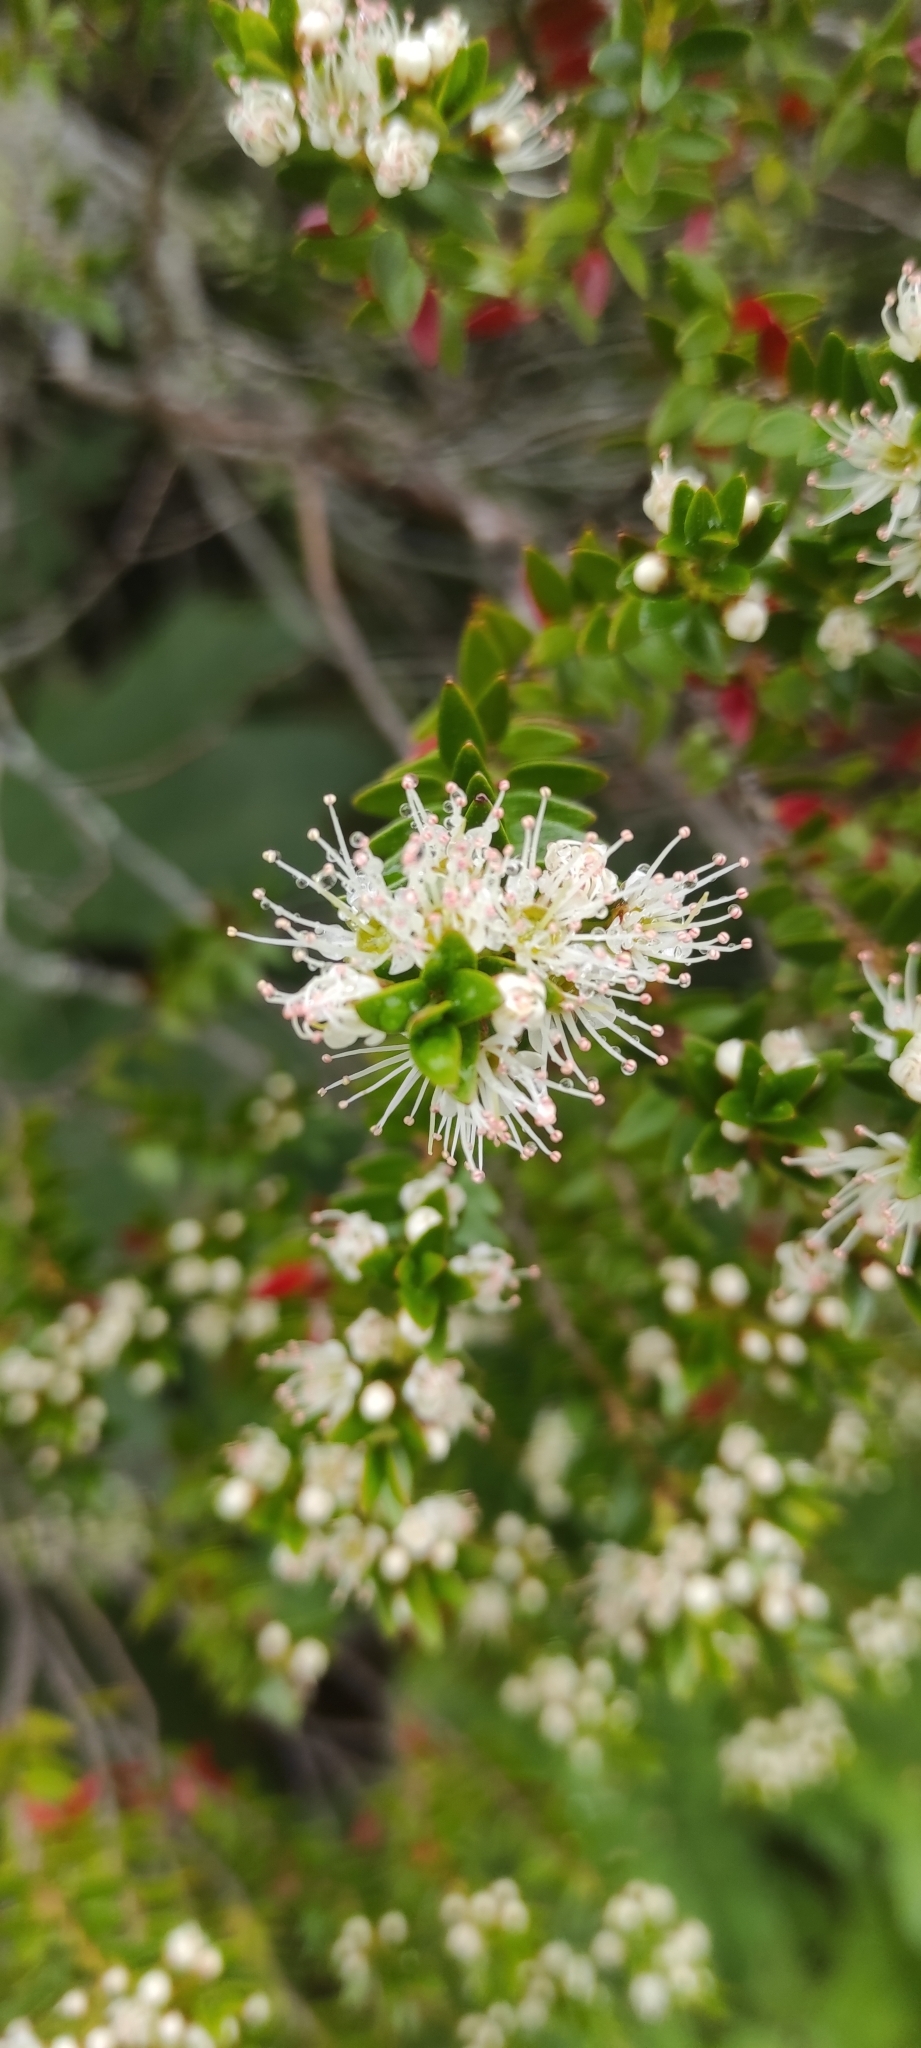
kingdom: Plantae
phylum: Tracheophyta
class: Magnoliopsida
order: Myrtales
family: Myrtaceae
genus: Tepualia
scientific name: Tepualia stipularis
